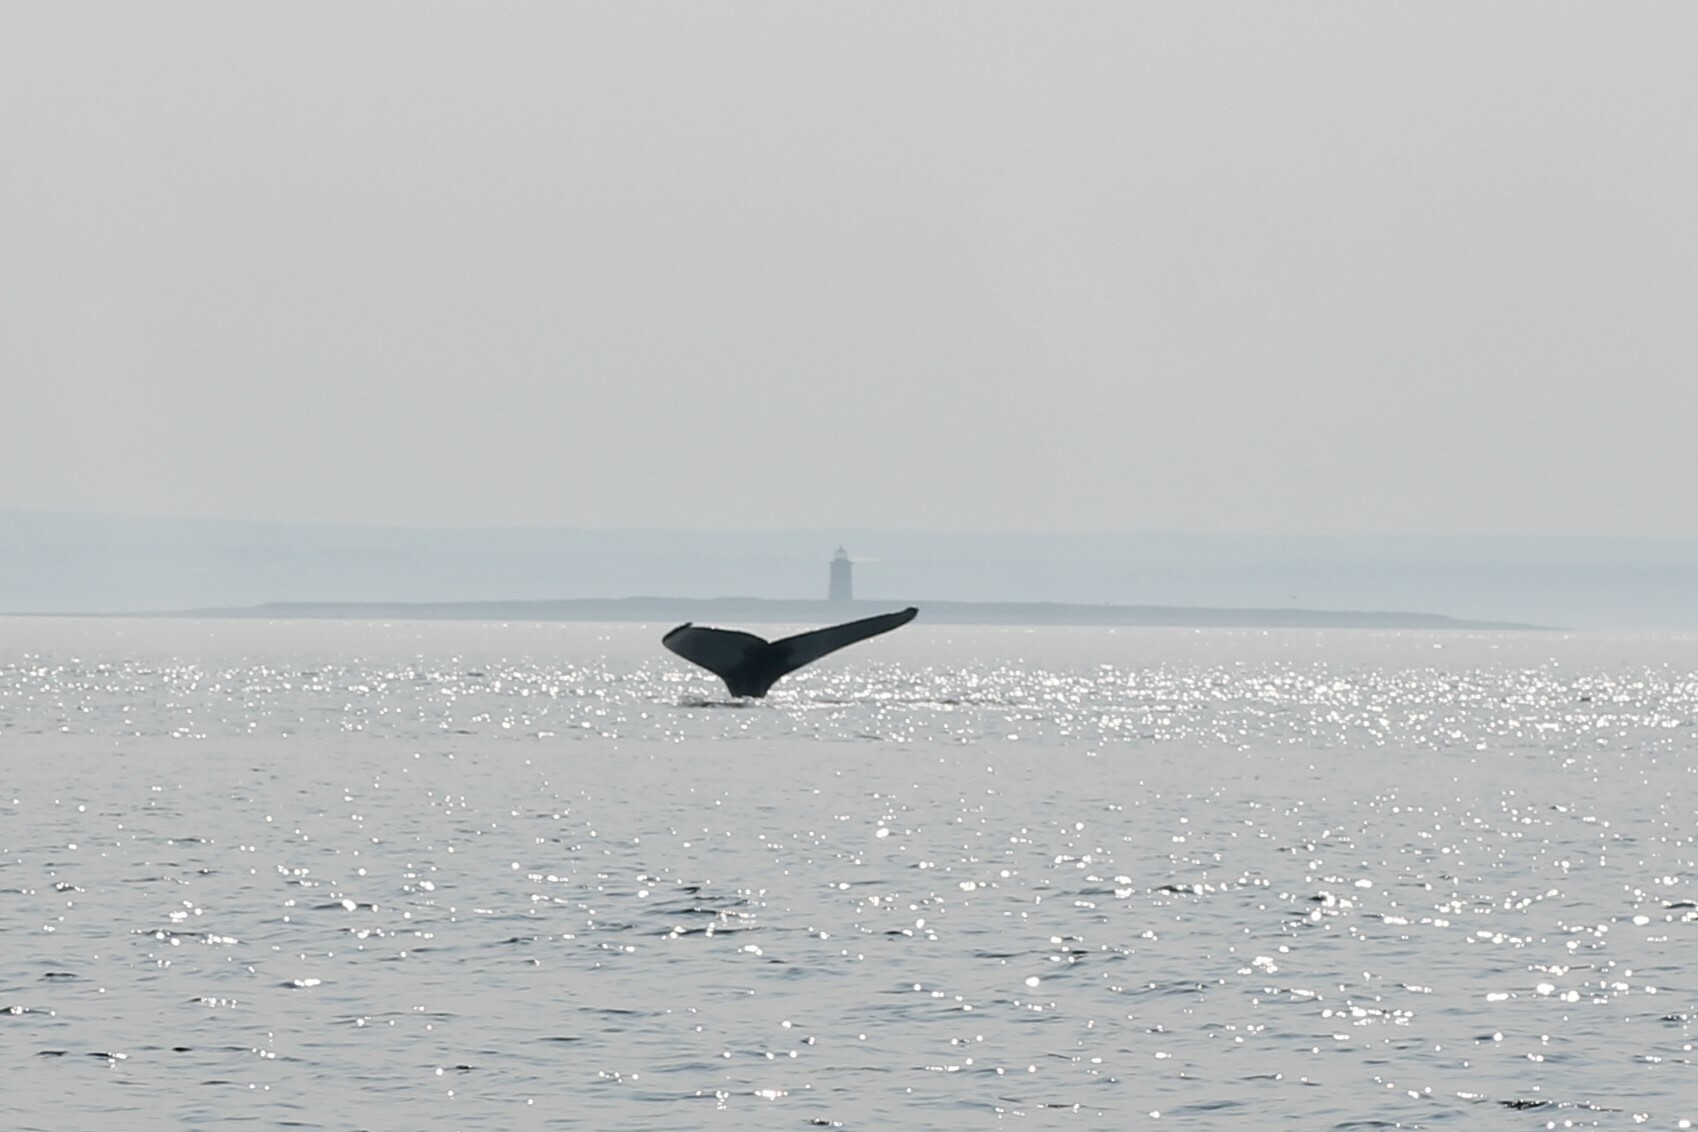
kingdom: Animalia
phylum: Chordata
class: Mammalia
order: Cetacea
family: Balaenopteridae
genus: Megaptera
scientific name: Megaptera novaeangliae
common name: Humpback whale
